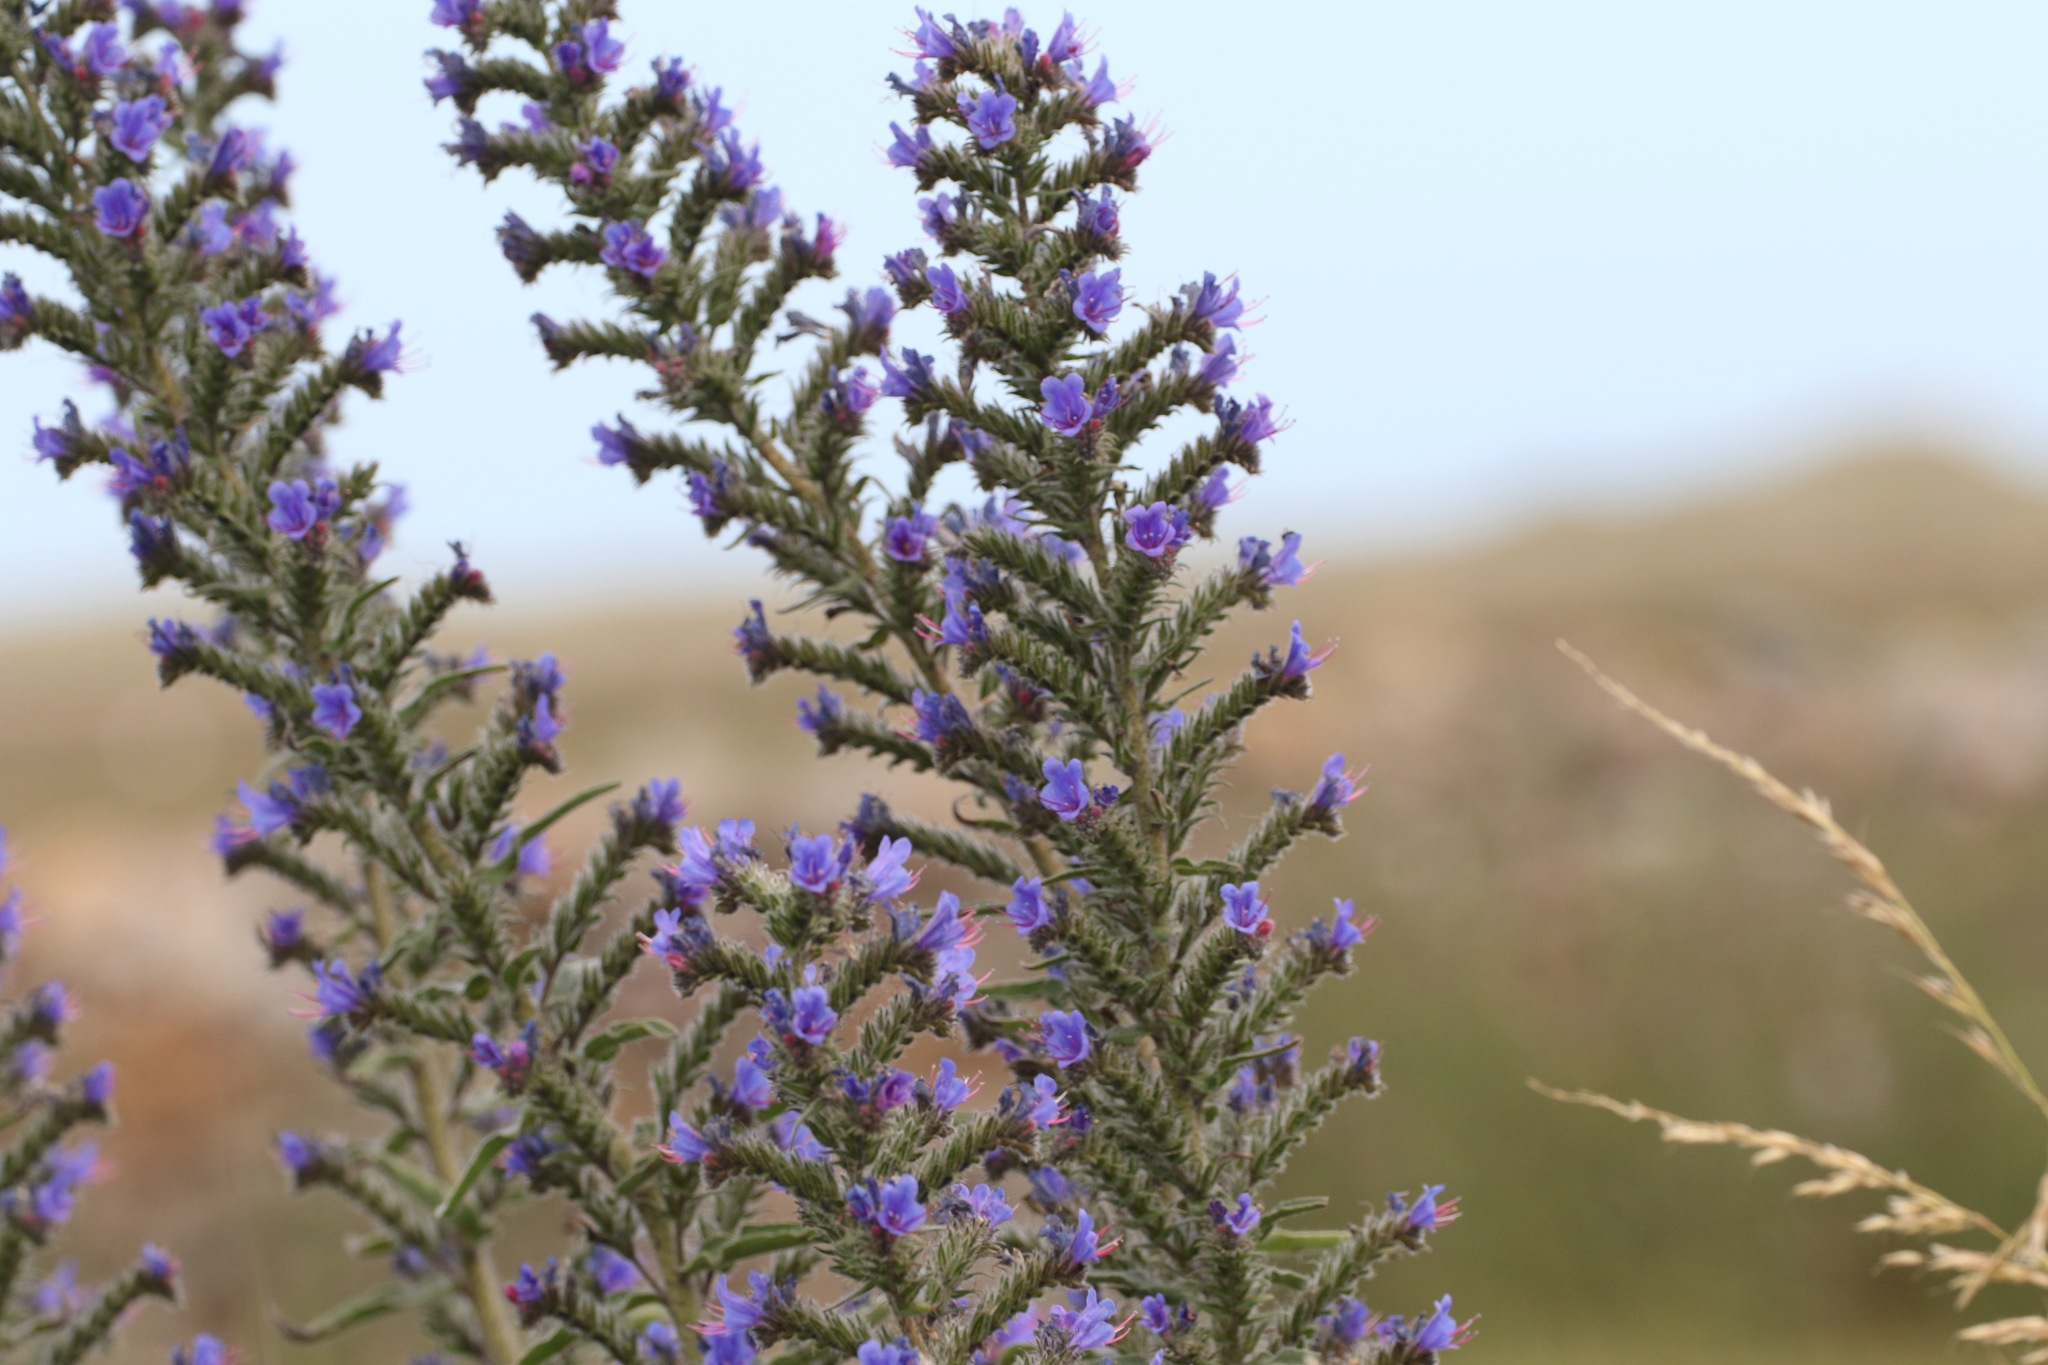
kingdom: Plantae
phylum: Tracheophyta
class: Magnoliopsida
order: Boraginales
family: Boraginaceae
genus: Echium
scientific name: Echium vulgare
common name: Common viper's bugloss
